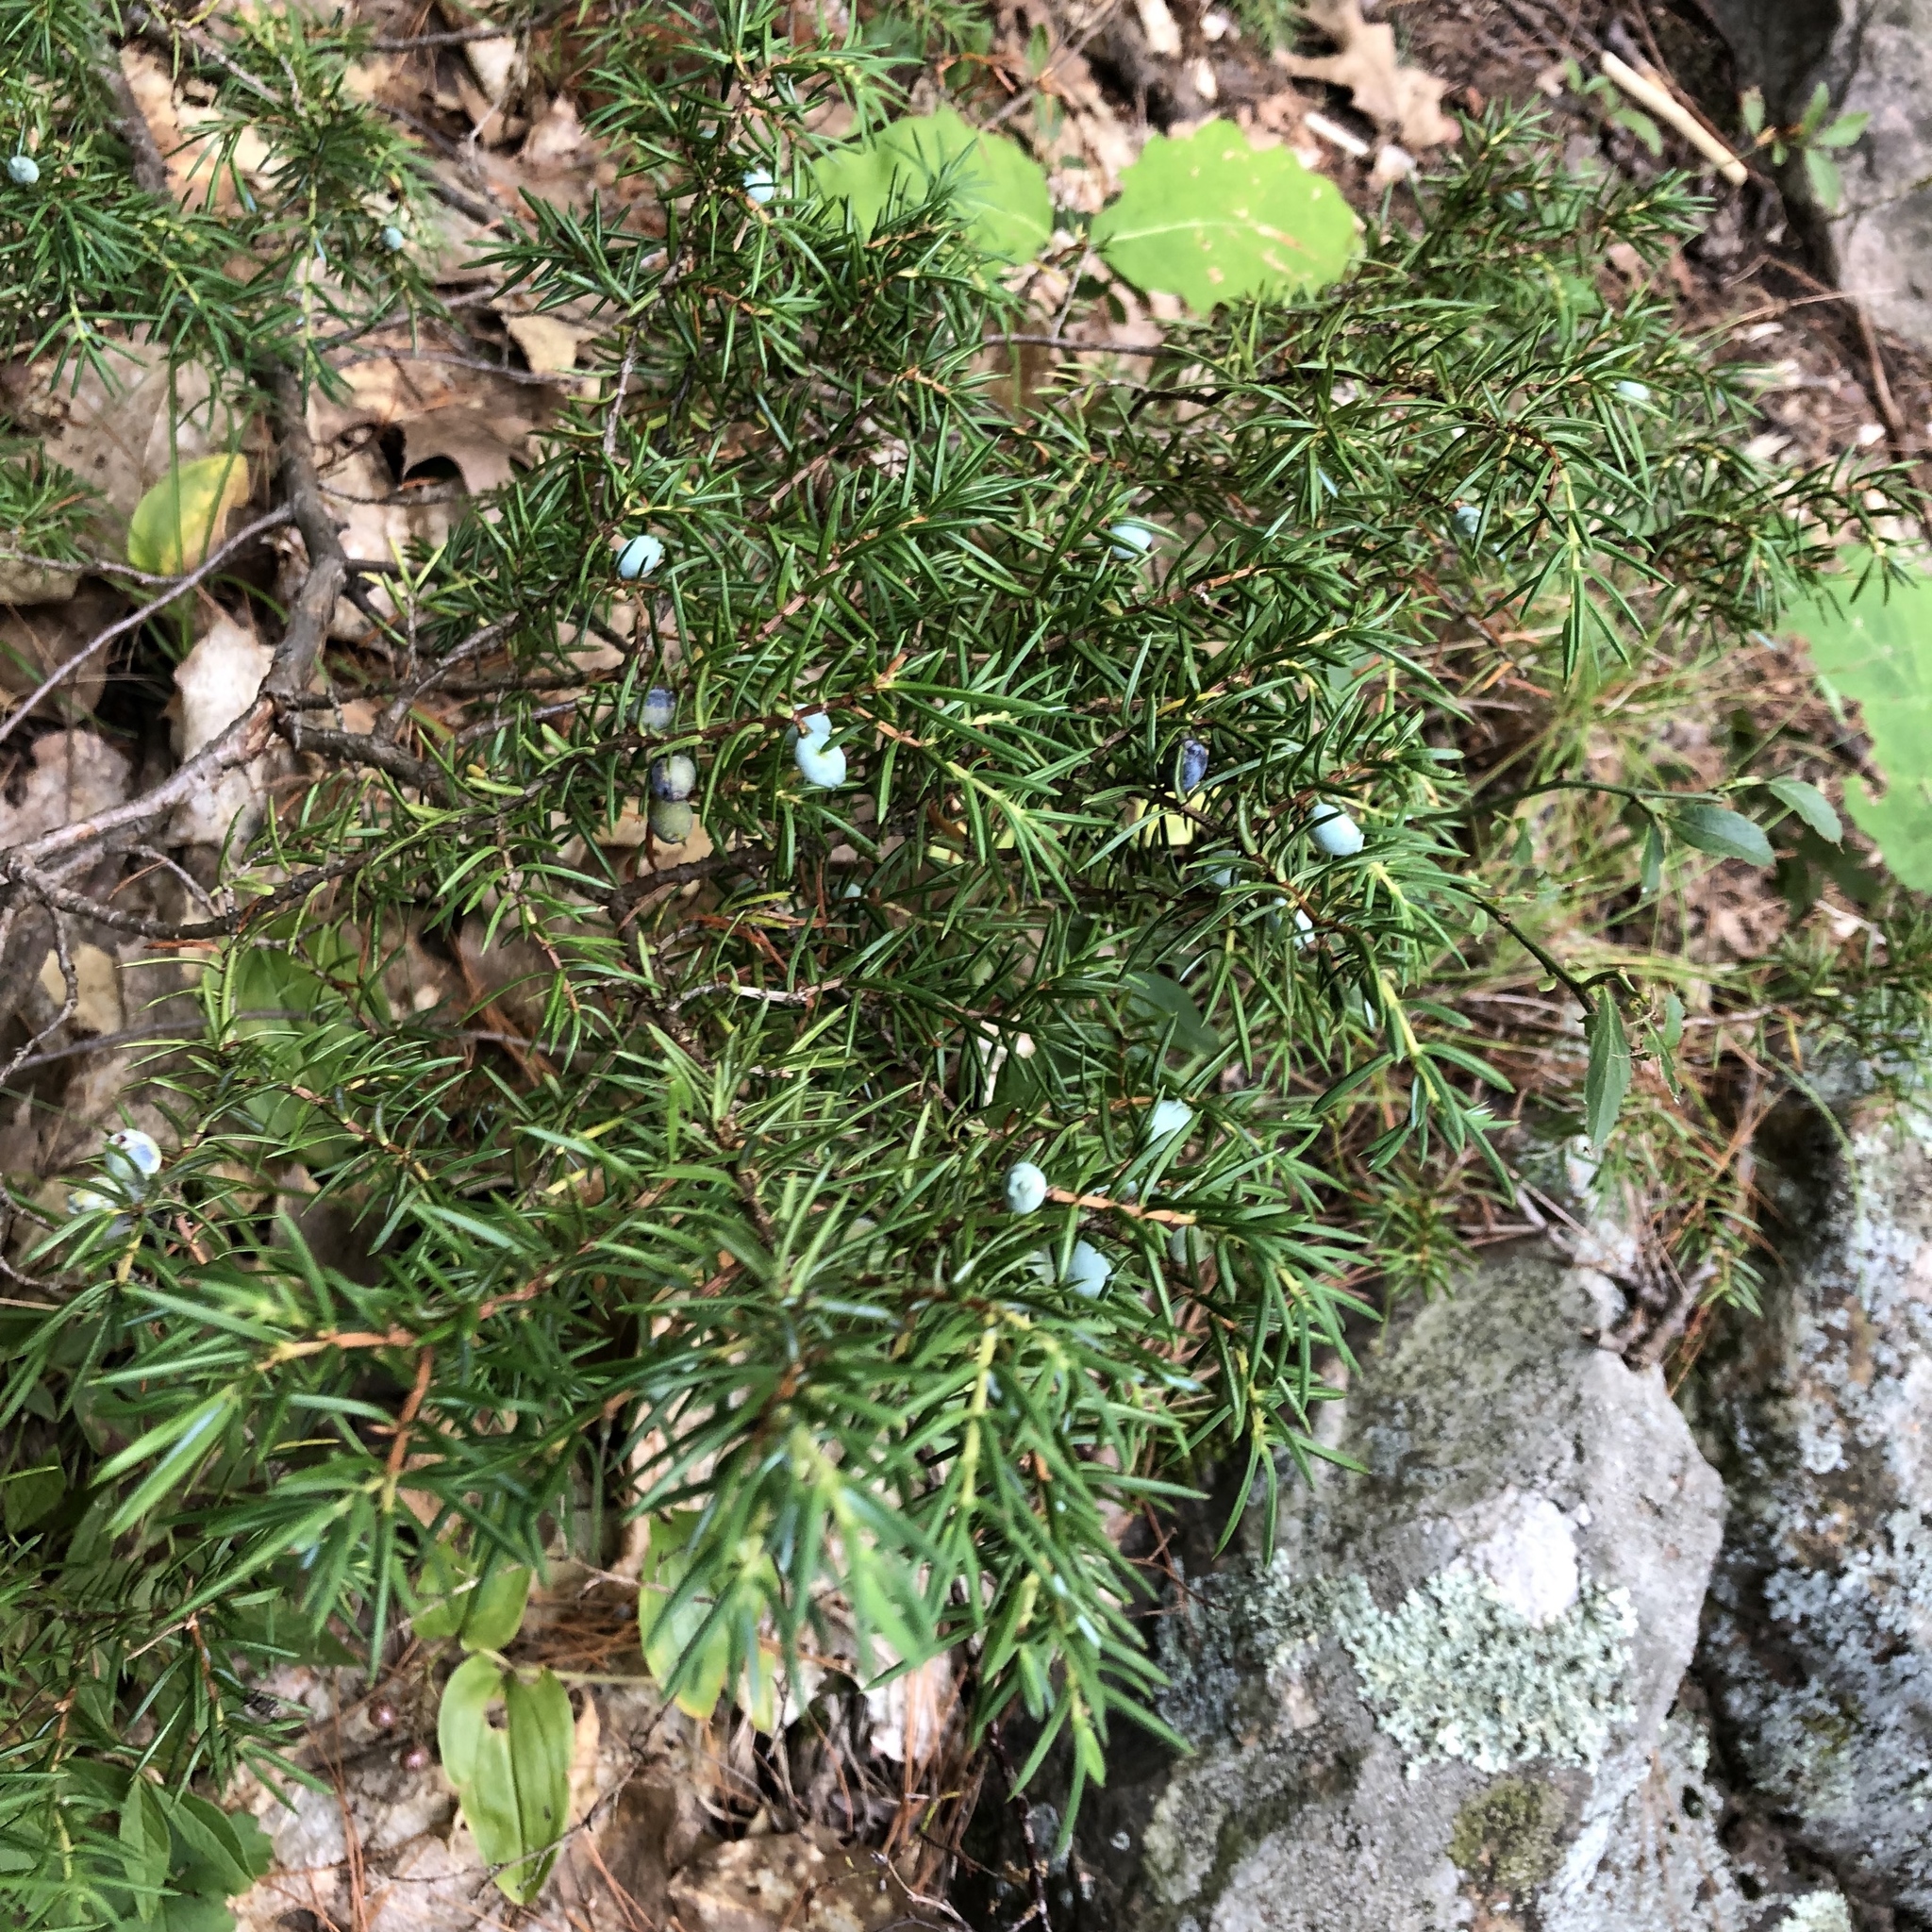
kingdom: Plantae
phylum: Tracheophyta
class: Pinopsida
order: Pinales
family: Cupressaceae
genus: Juniperus
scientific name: Juniperus communis
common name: Common juniper
